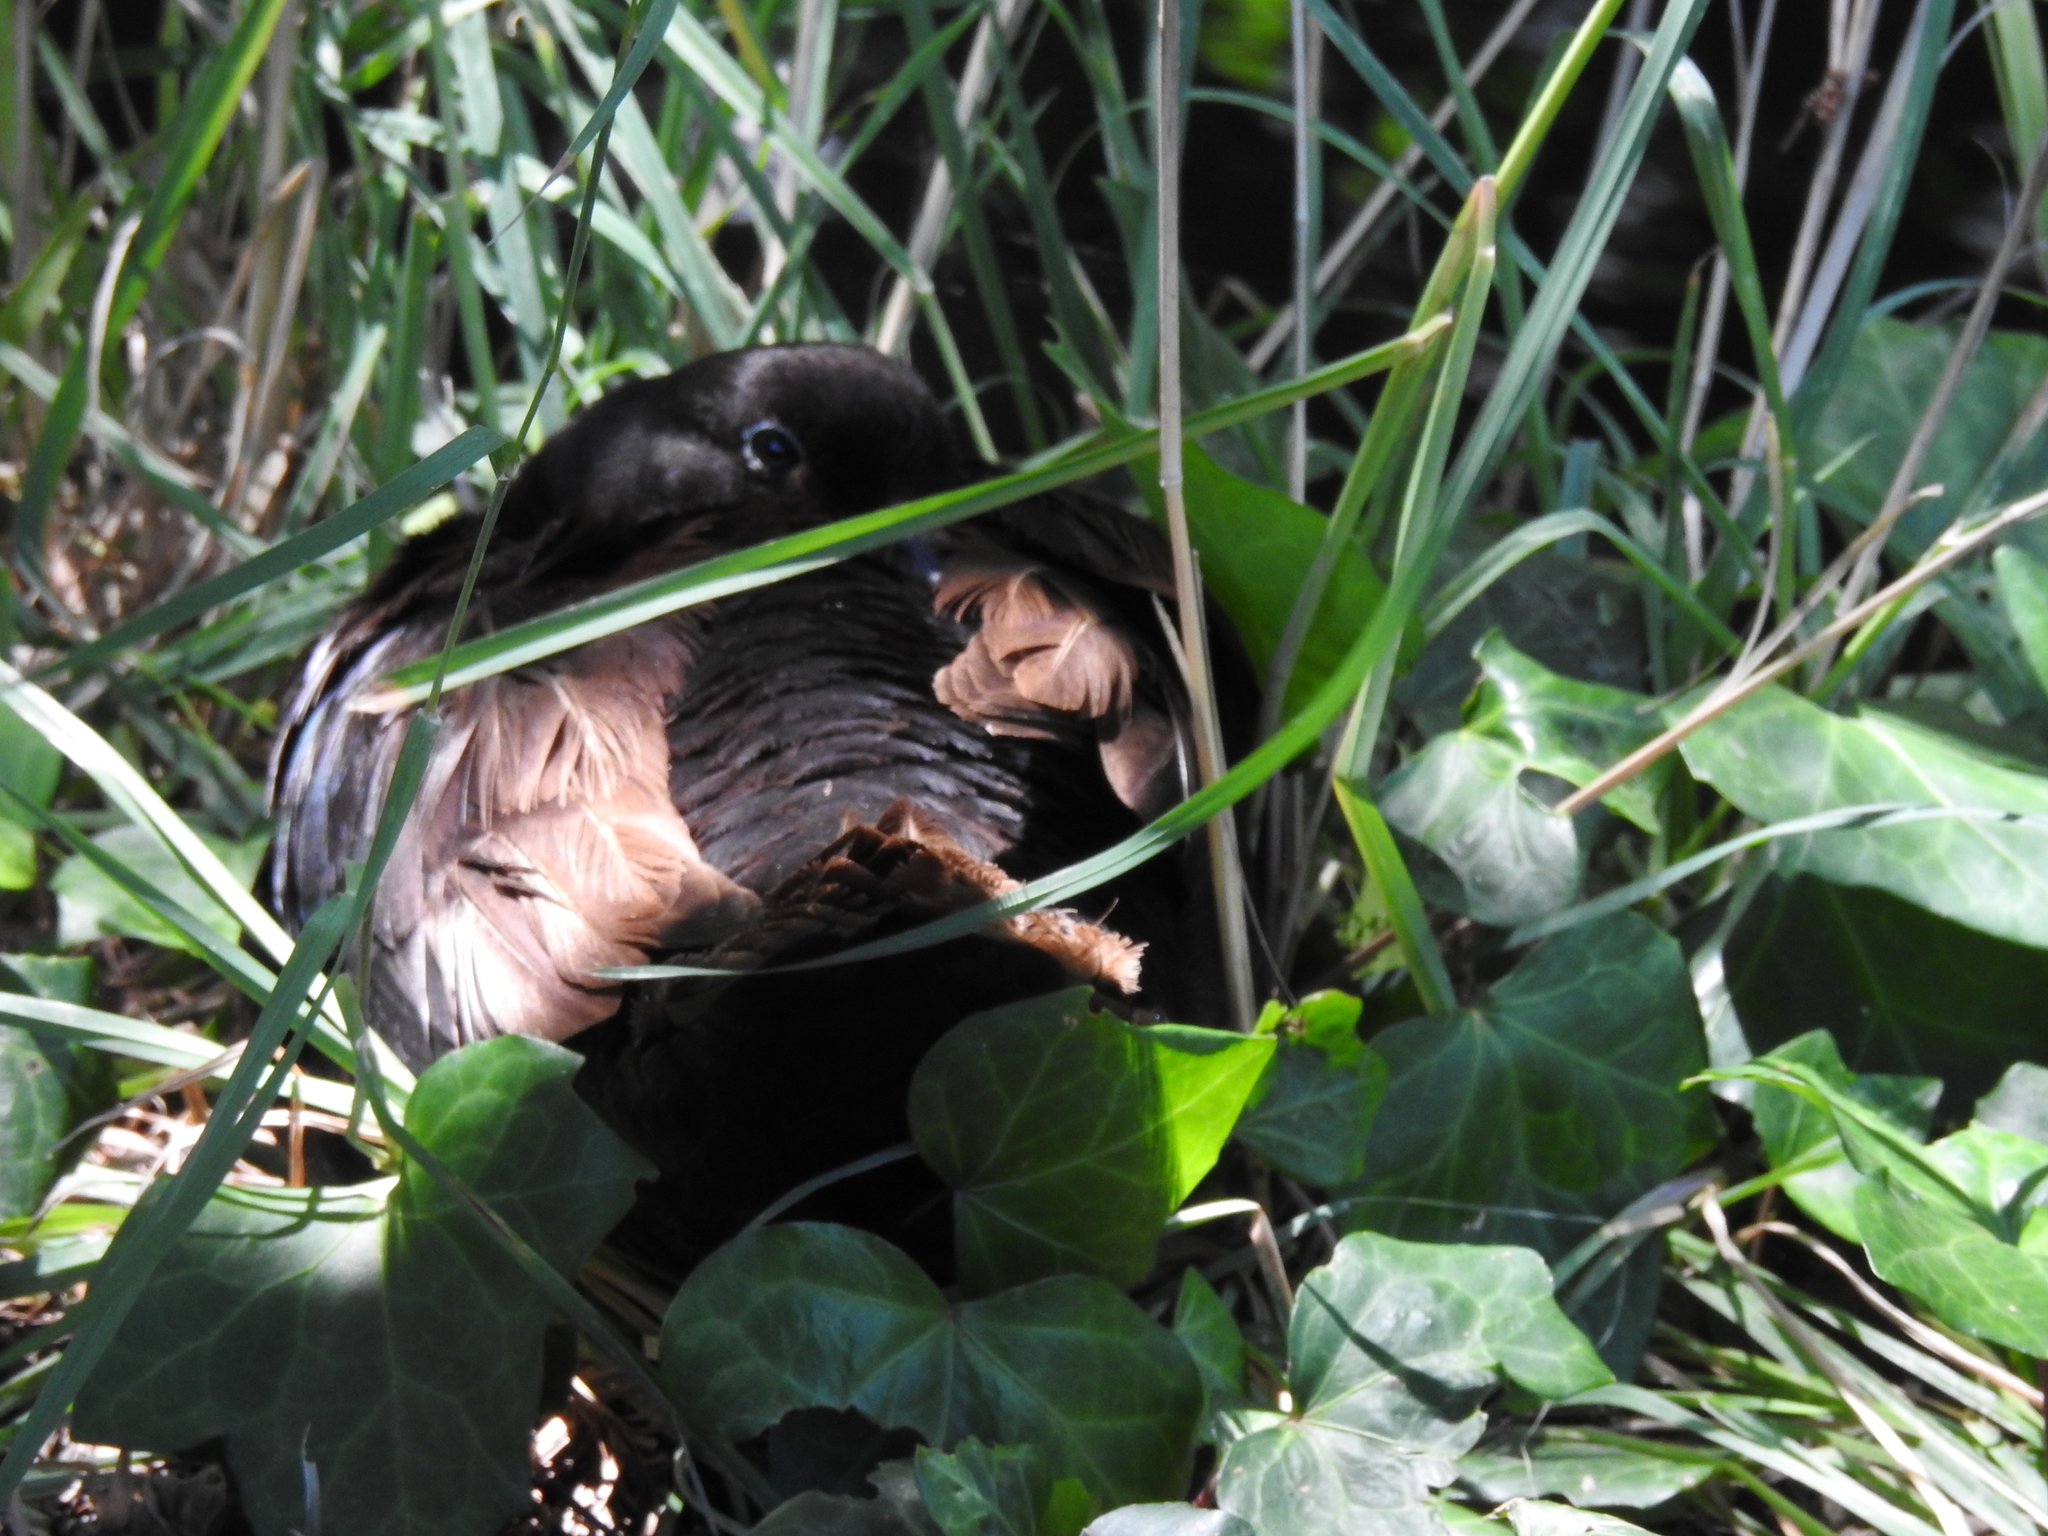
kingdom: Animalia
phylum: Chordata
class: Aves
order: Anseriformes
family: Anatidae
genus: Anas
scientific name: Anas platyrhynchos
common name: Mallard
